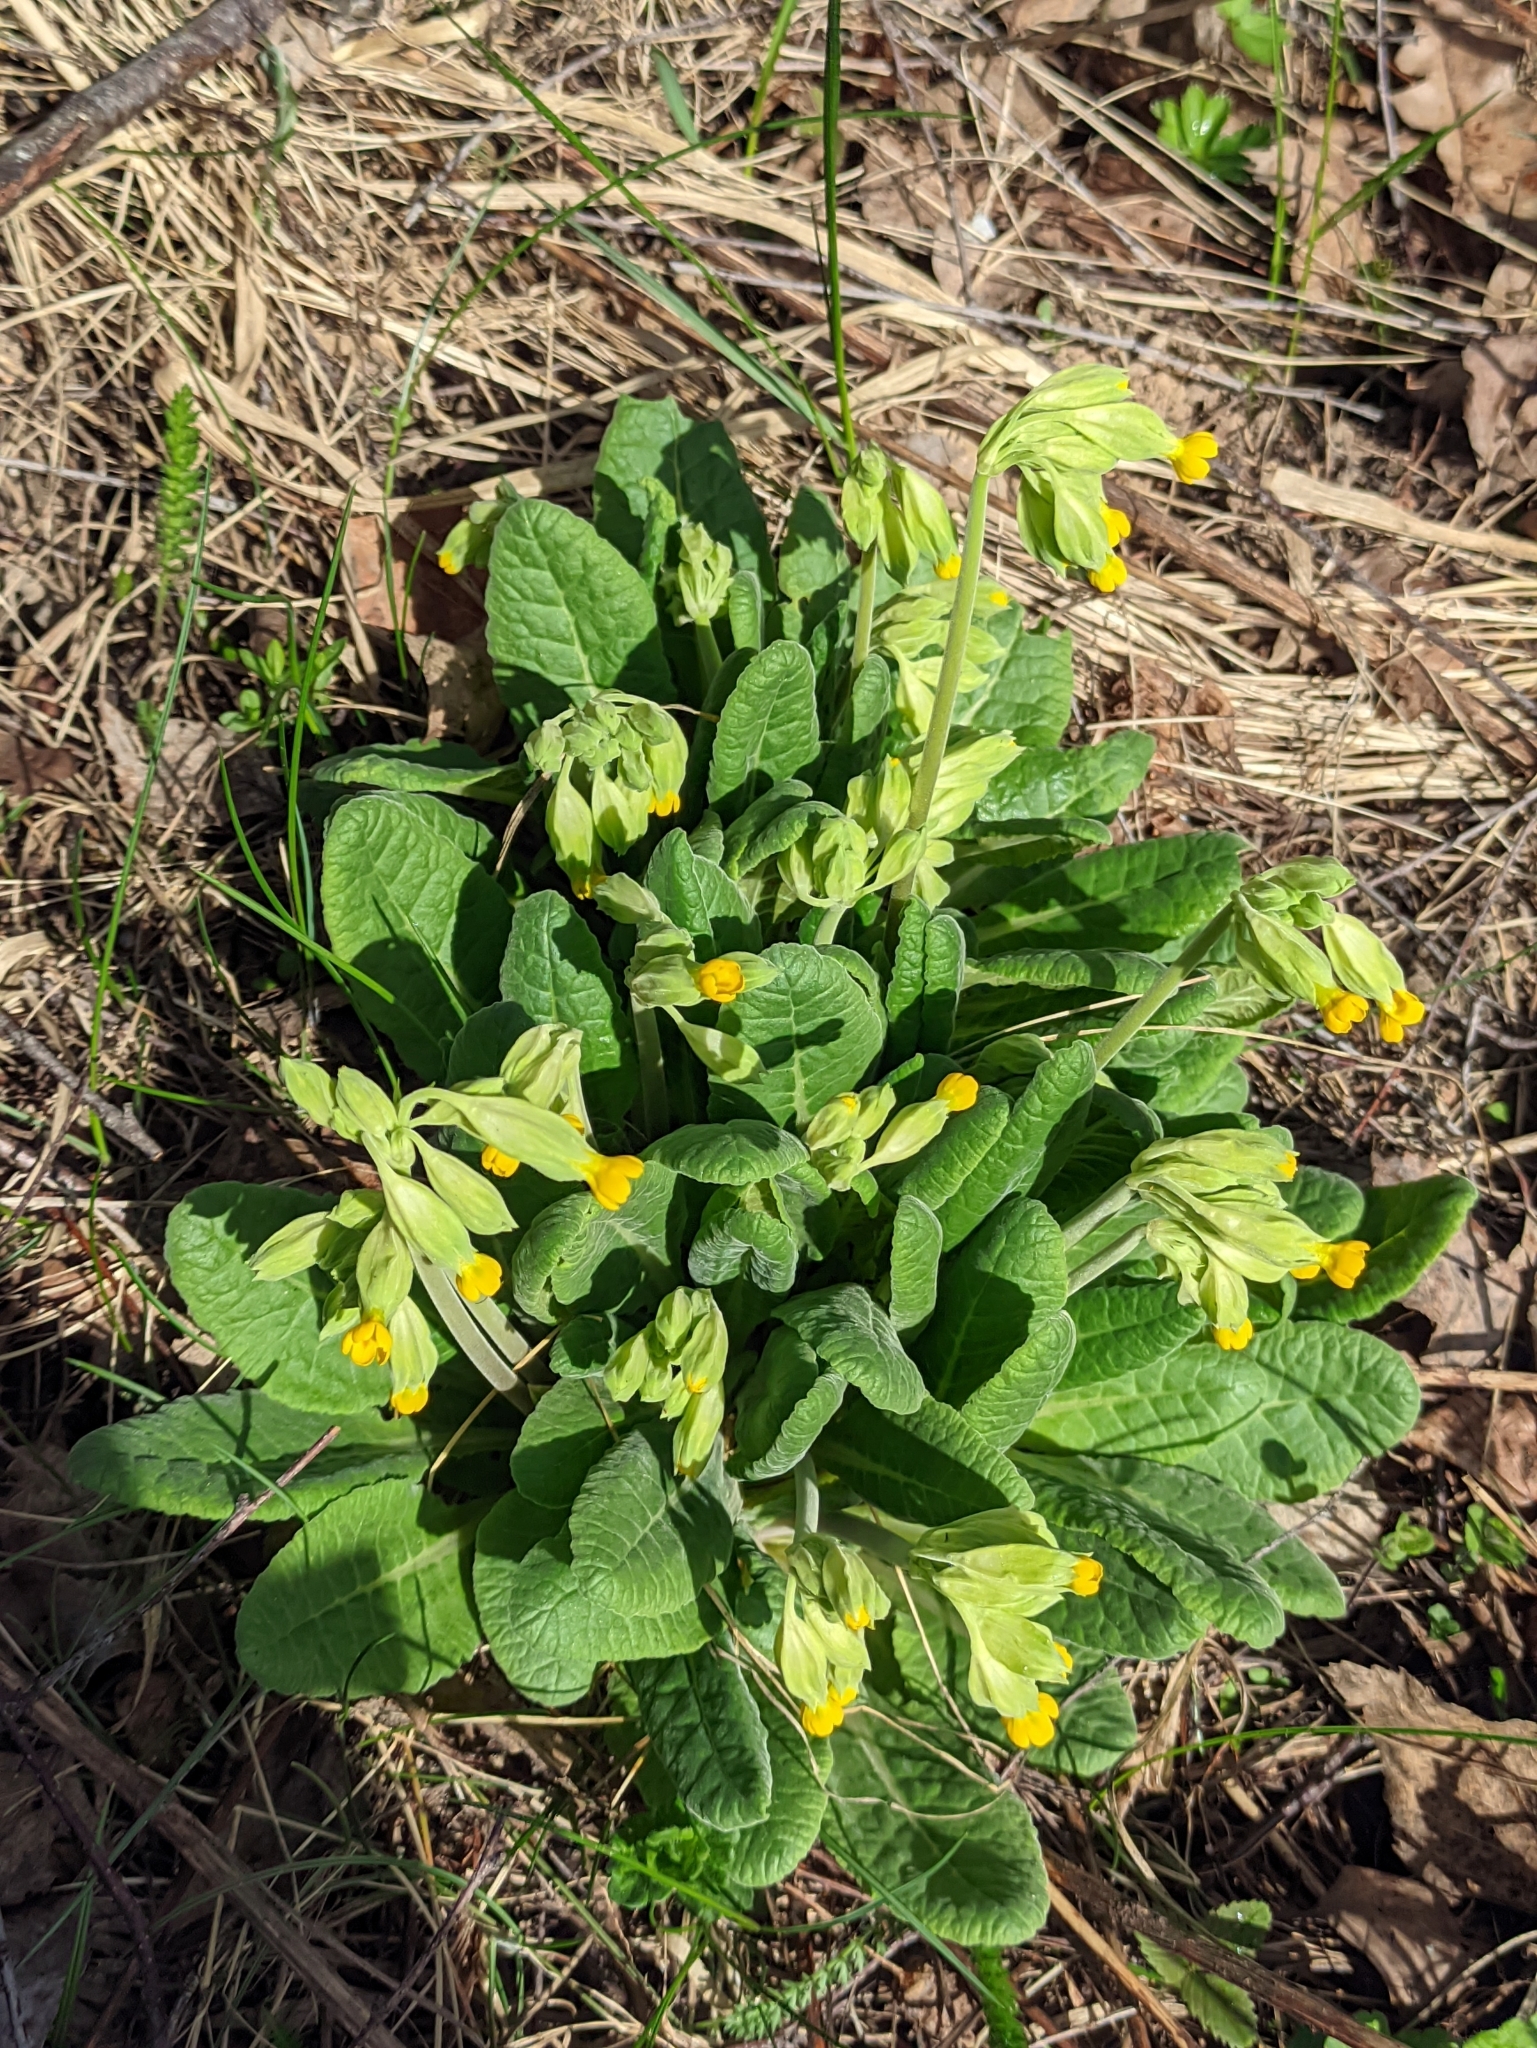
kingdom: Plantae
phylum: Tracheophyta
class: Magnoliopsida
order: Ericales
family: Primulaceae
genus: Primula
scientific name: Primula veris
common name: Cowslip
